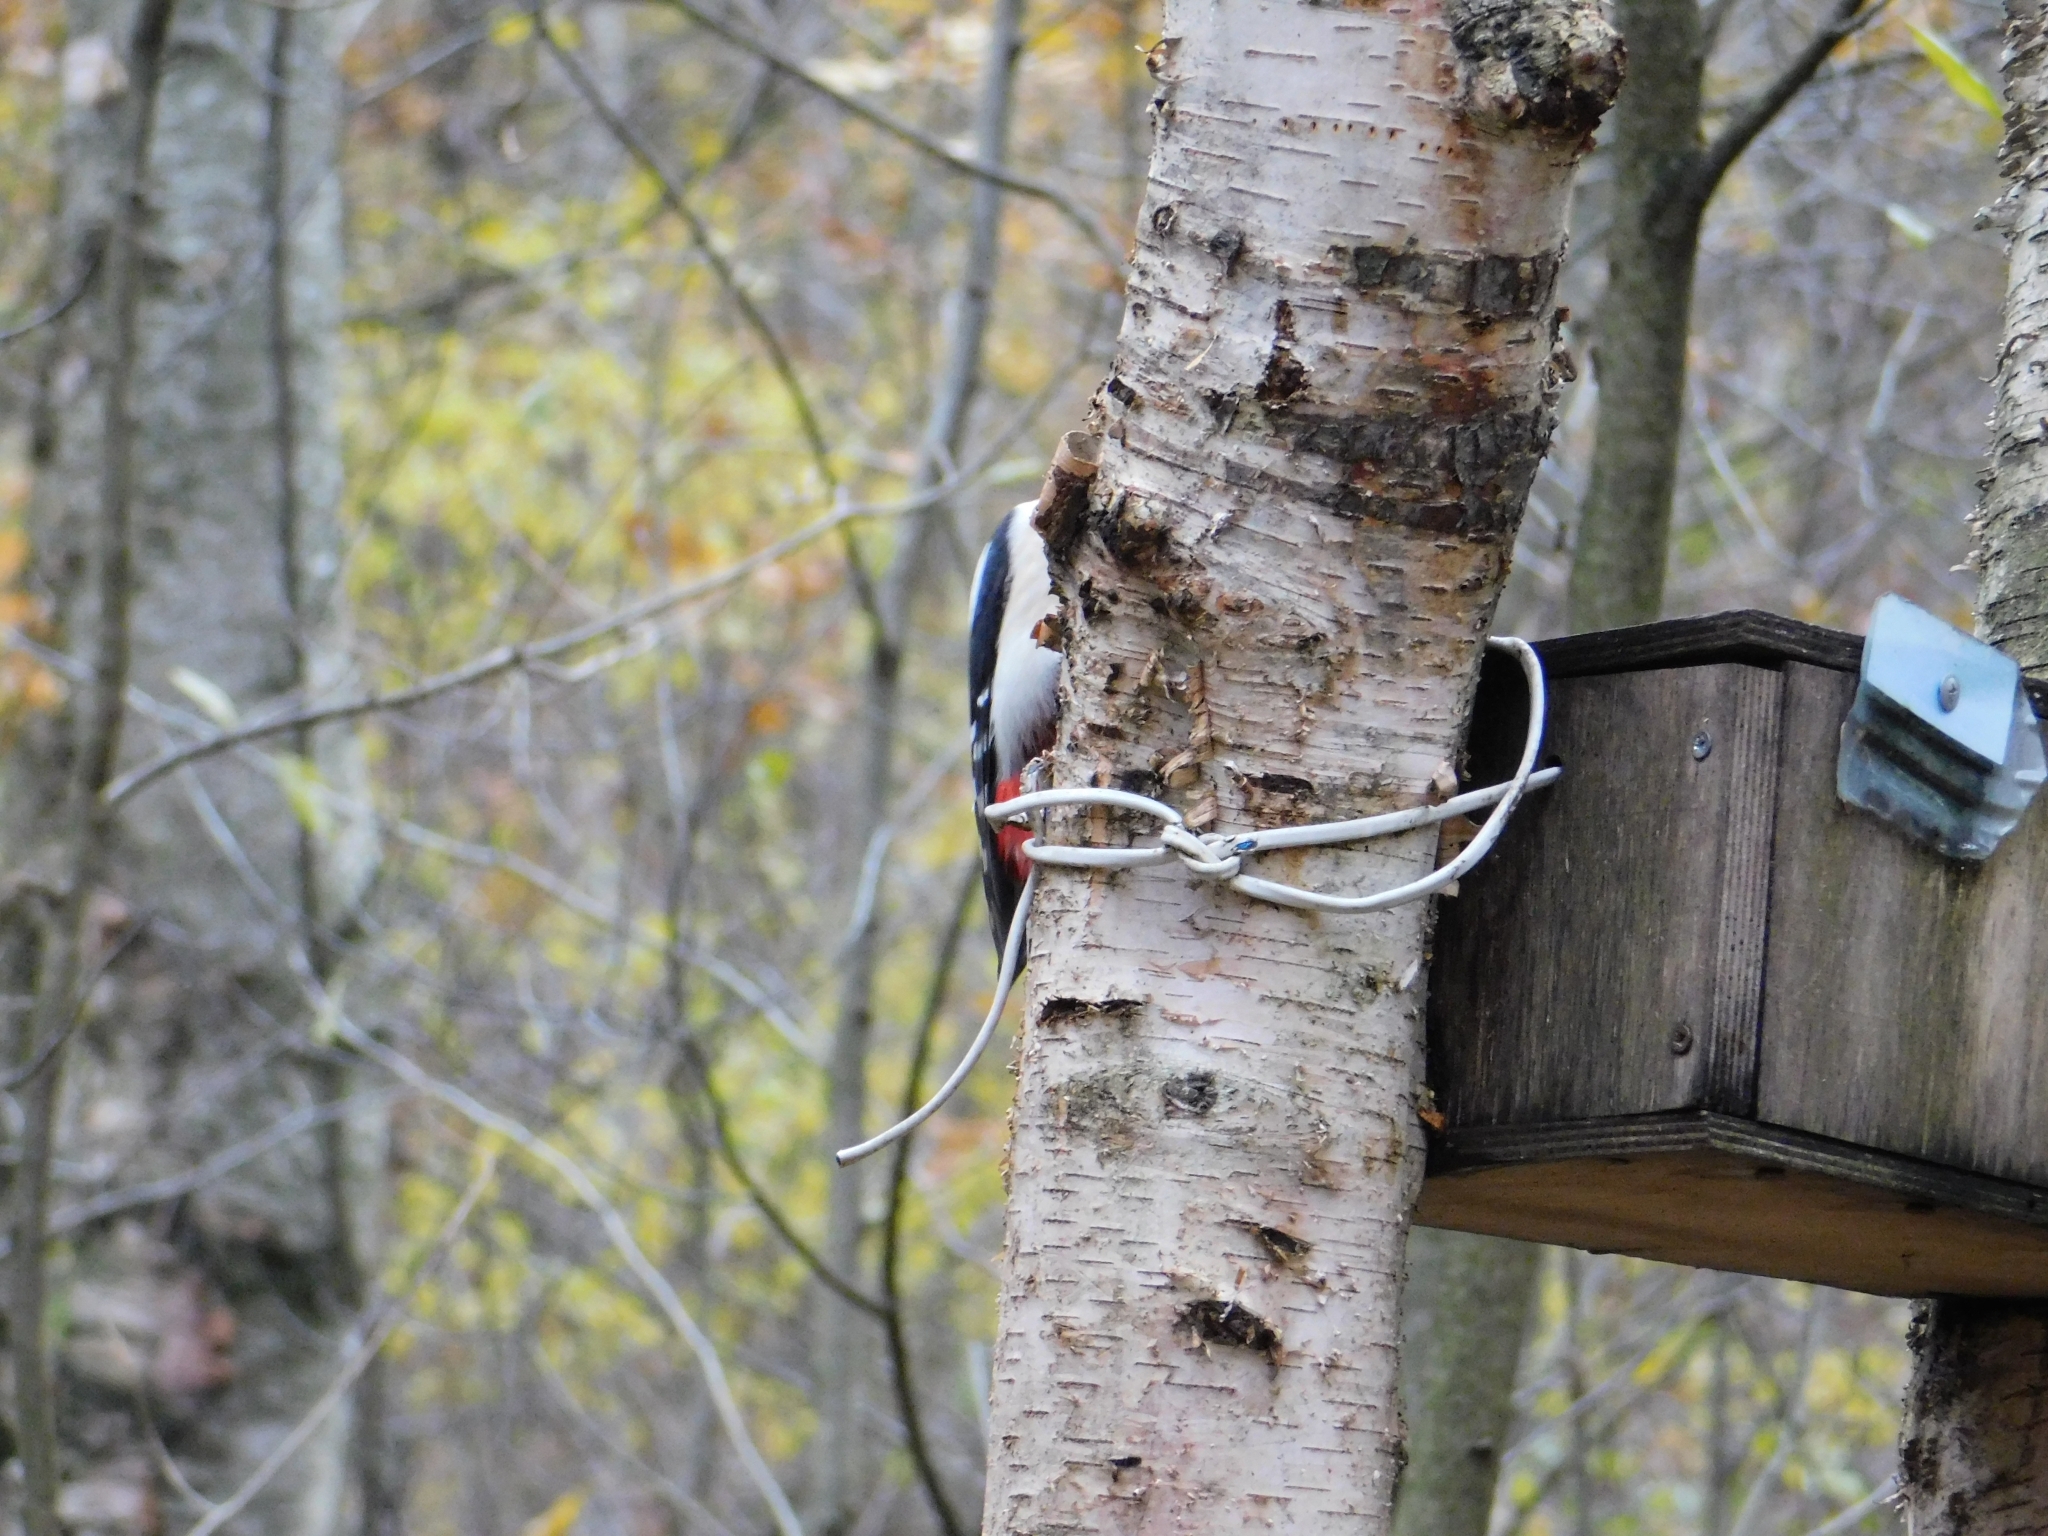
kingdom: Animalia
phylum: Chordata
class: Aves
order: Piciformes
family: Picidae
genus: Dendrocopos
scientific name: Dendrocopos major
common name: Great spotted woodpecker
